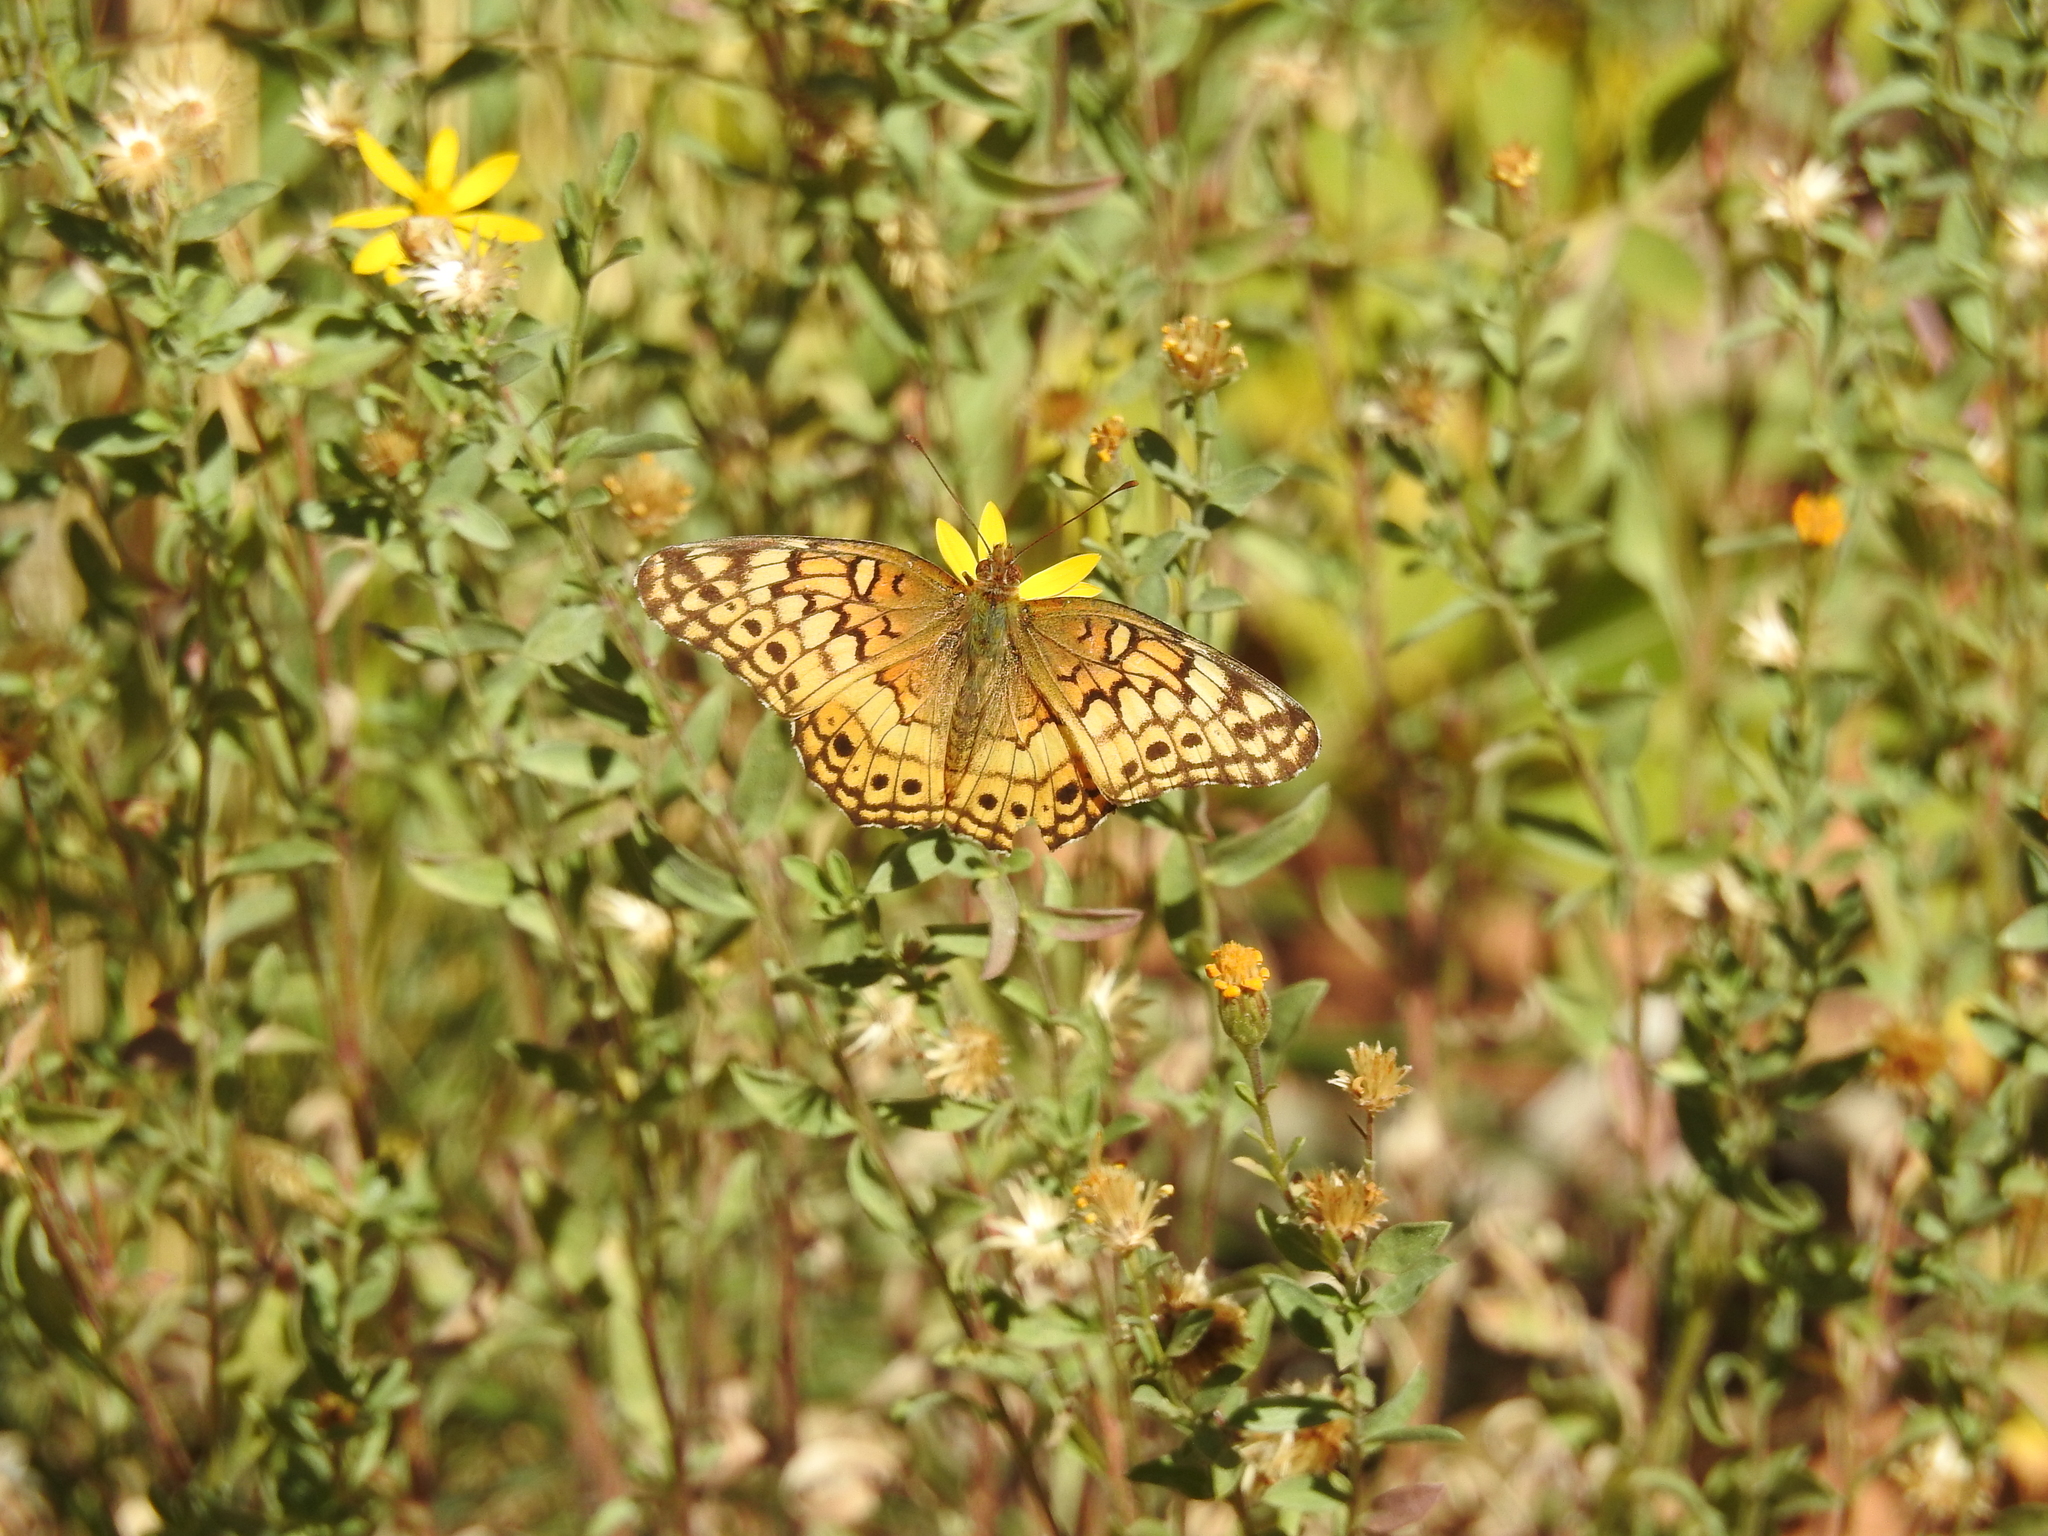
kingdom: Animalia
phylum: Arthropoda
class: Insecta
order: Lepidoptera
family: Nymphalidae
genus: Euptoieta
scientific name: Euptoieta claudia
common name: Variegated fritillary
